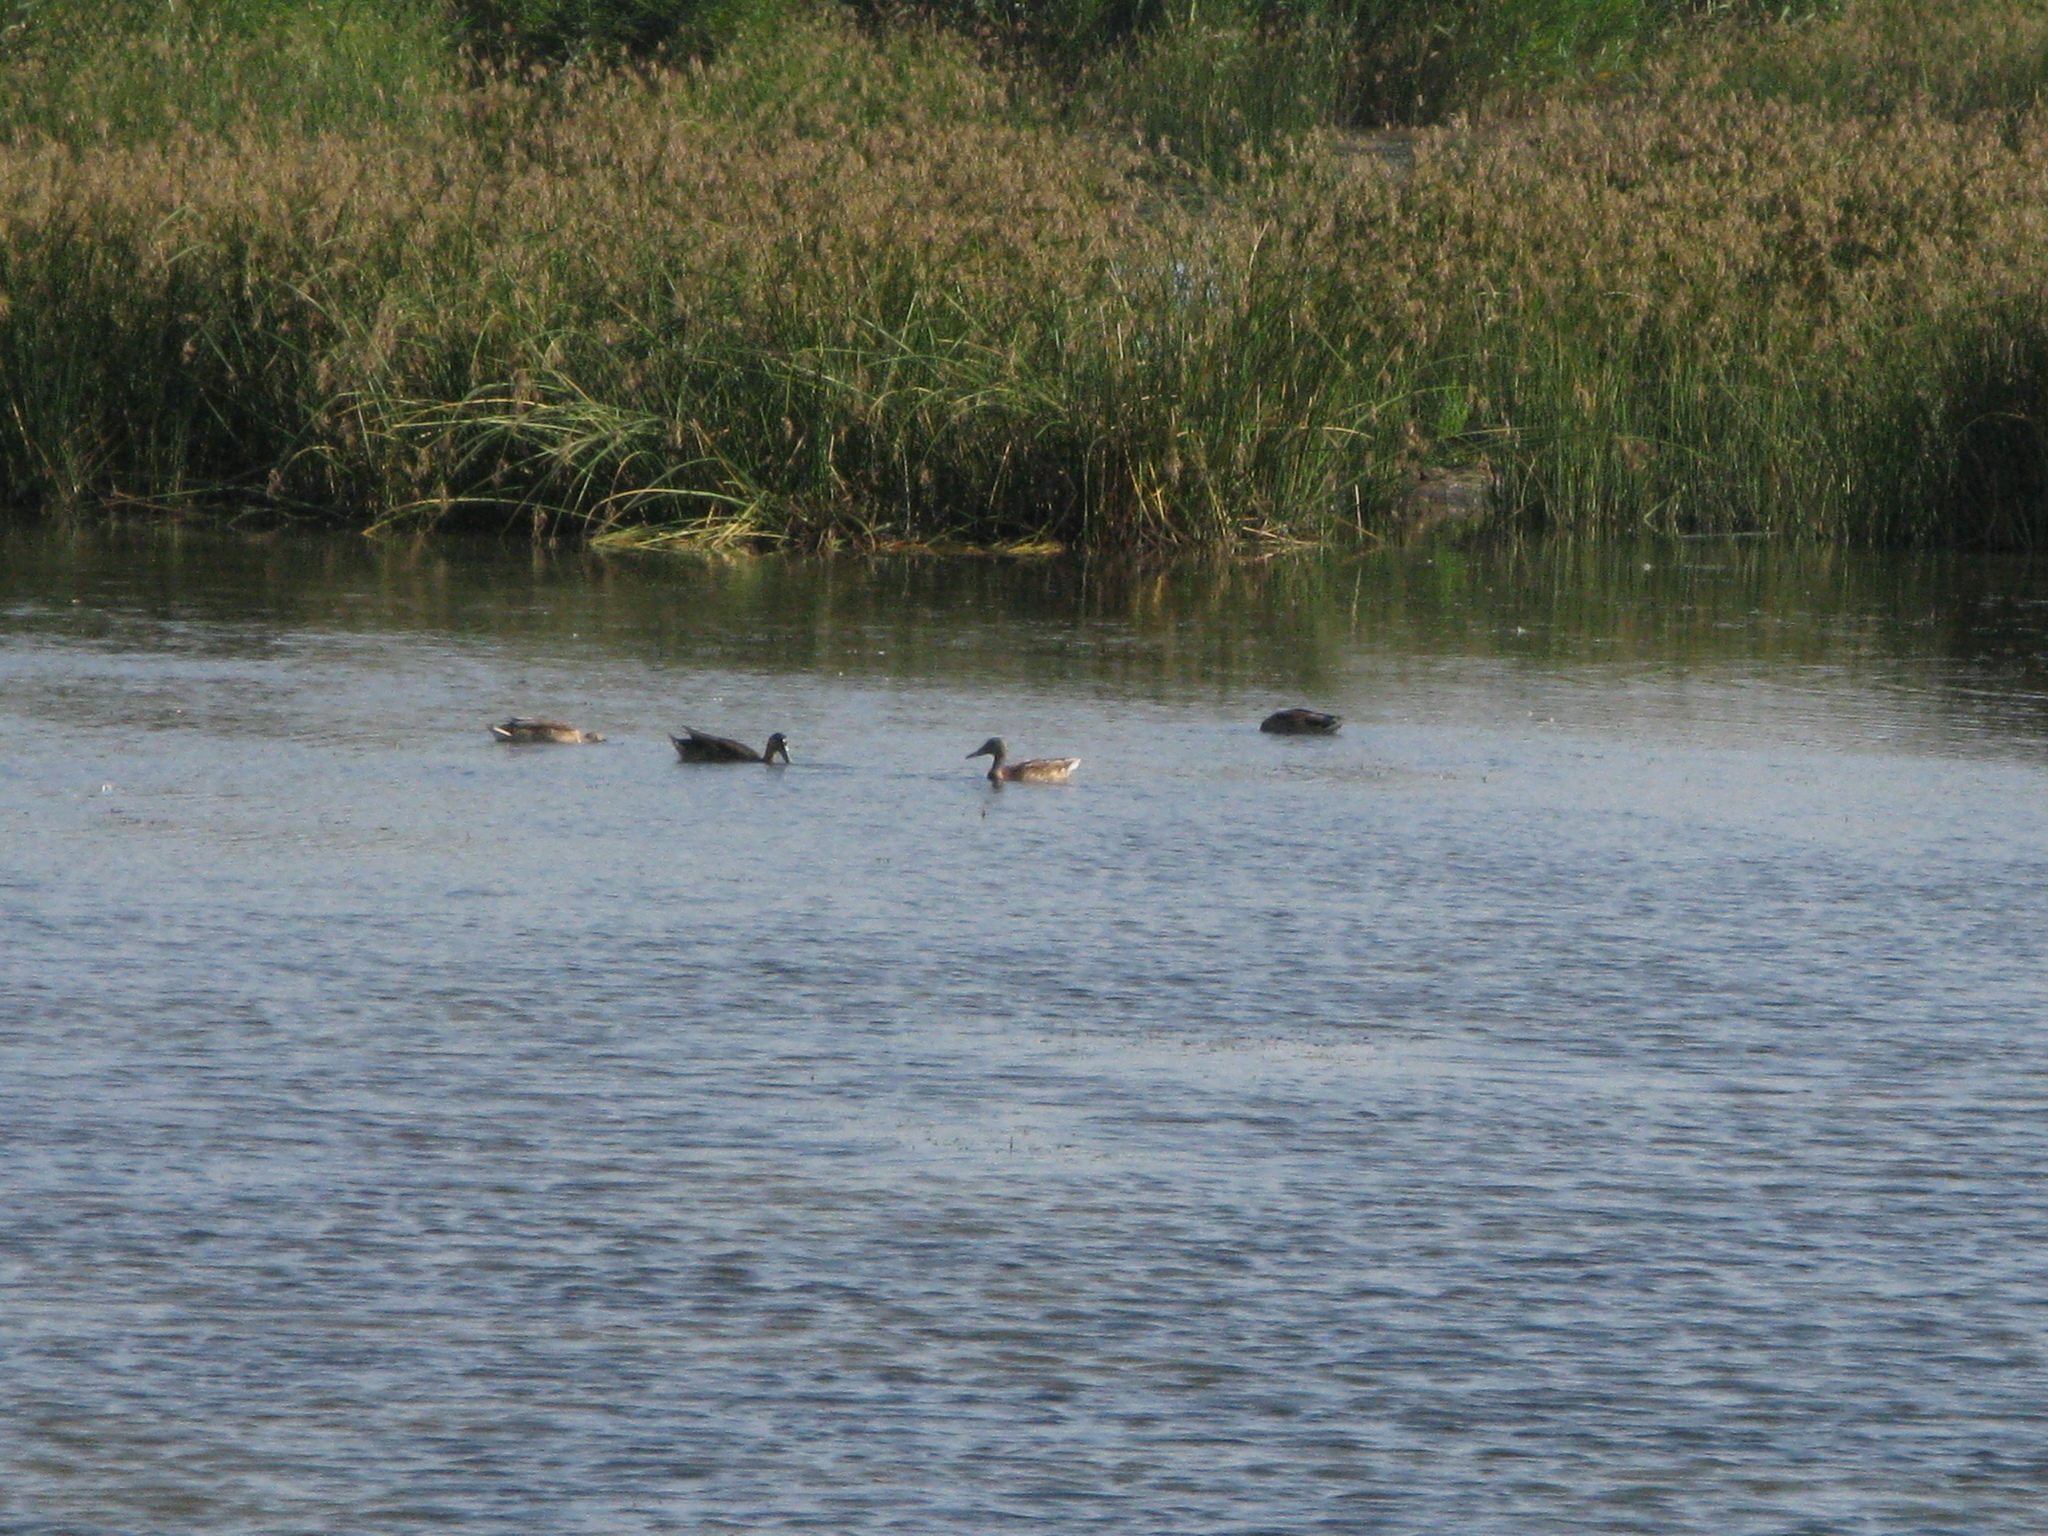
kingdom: Animalia
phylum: Chordata
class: Aves
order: Anseriformes
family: Anatidae
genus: Anas
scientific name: Anas platyrhynchos
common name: Mallard
